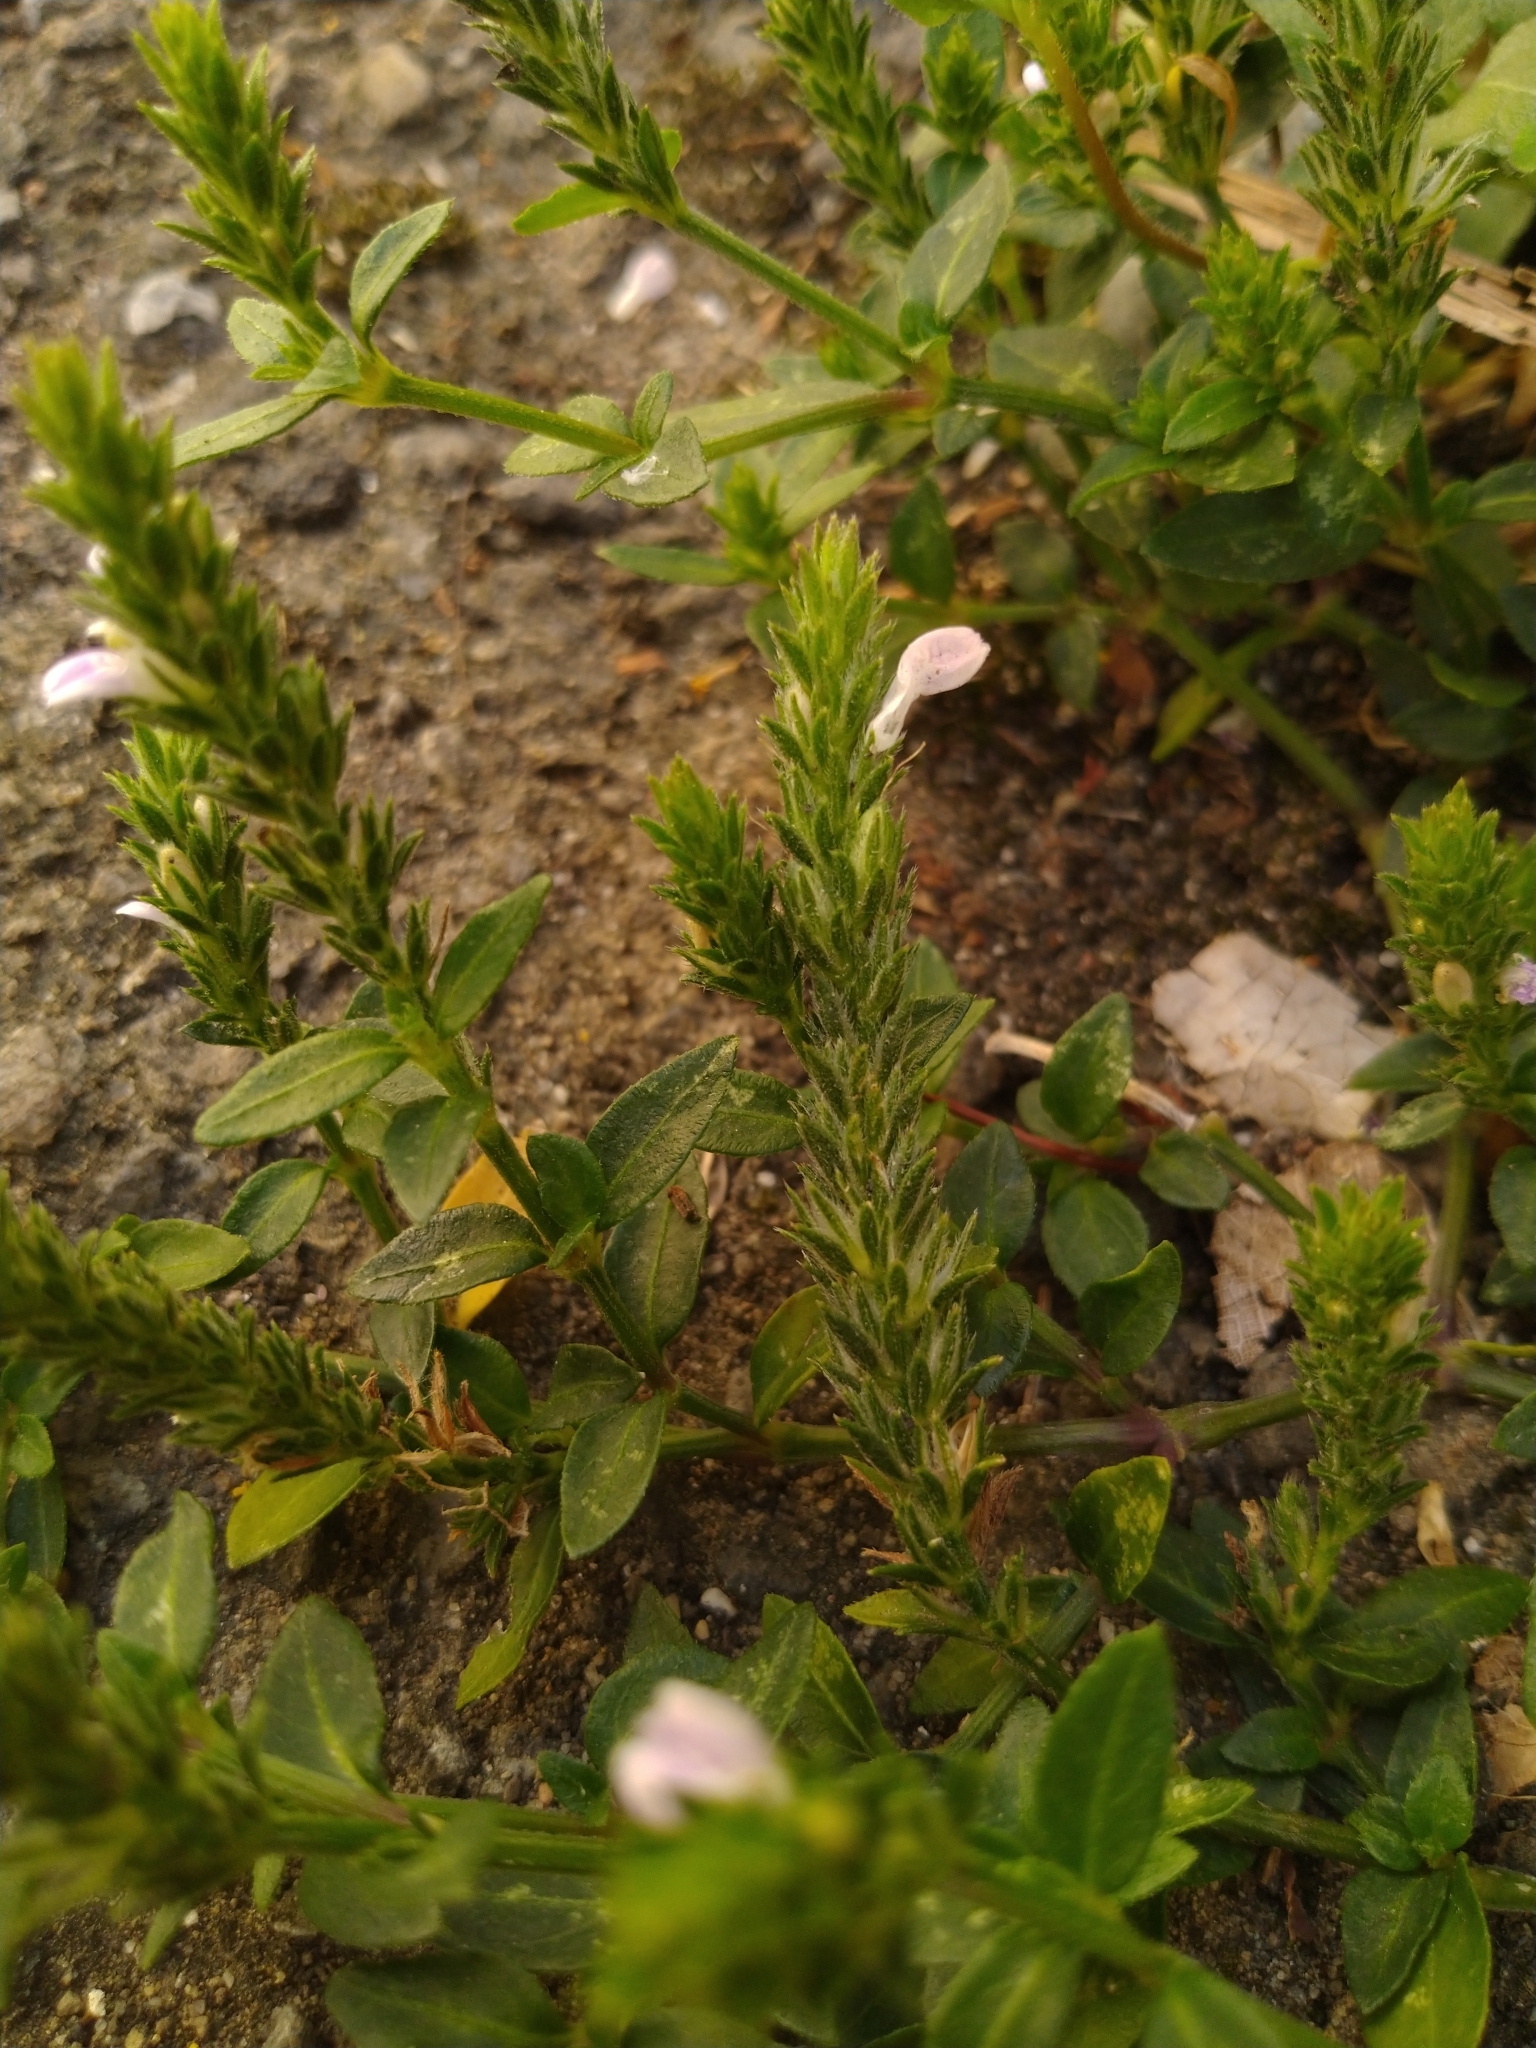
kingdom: Plantae
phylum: Tracheophyta
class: Magnoliopsida
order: Lamiales
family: Acanthaceae
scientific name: Acanthaceae
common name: Acanthaceae
